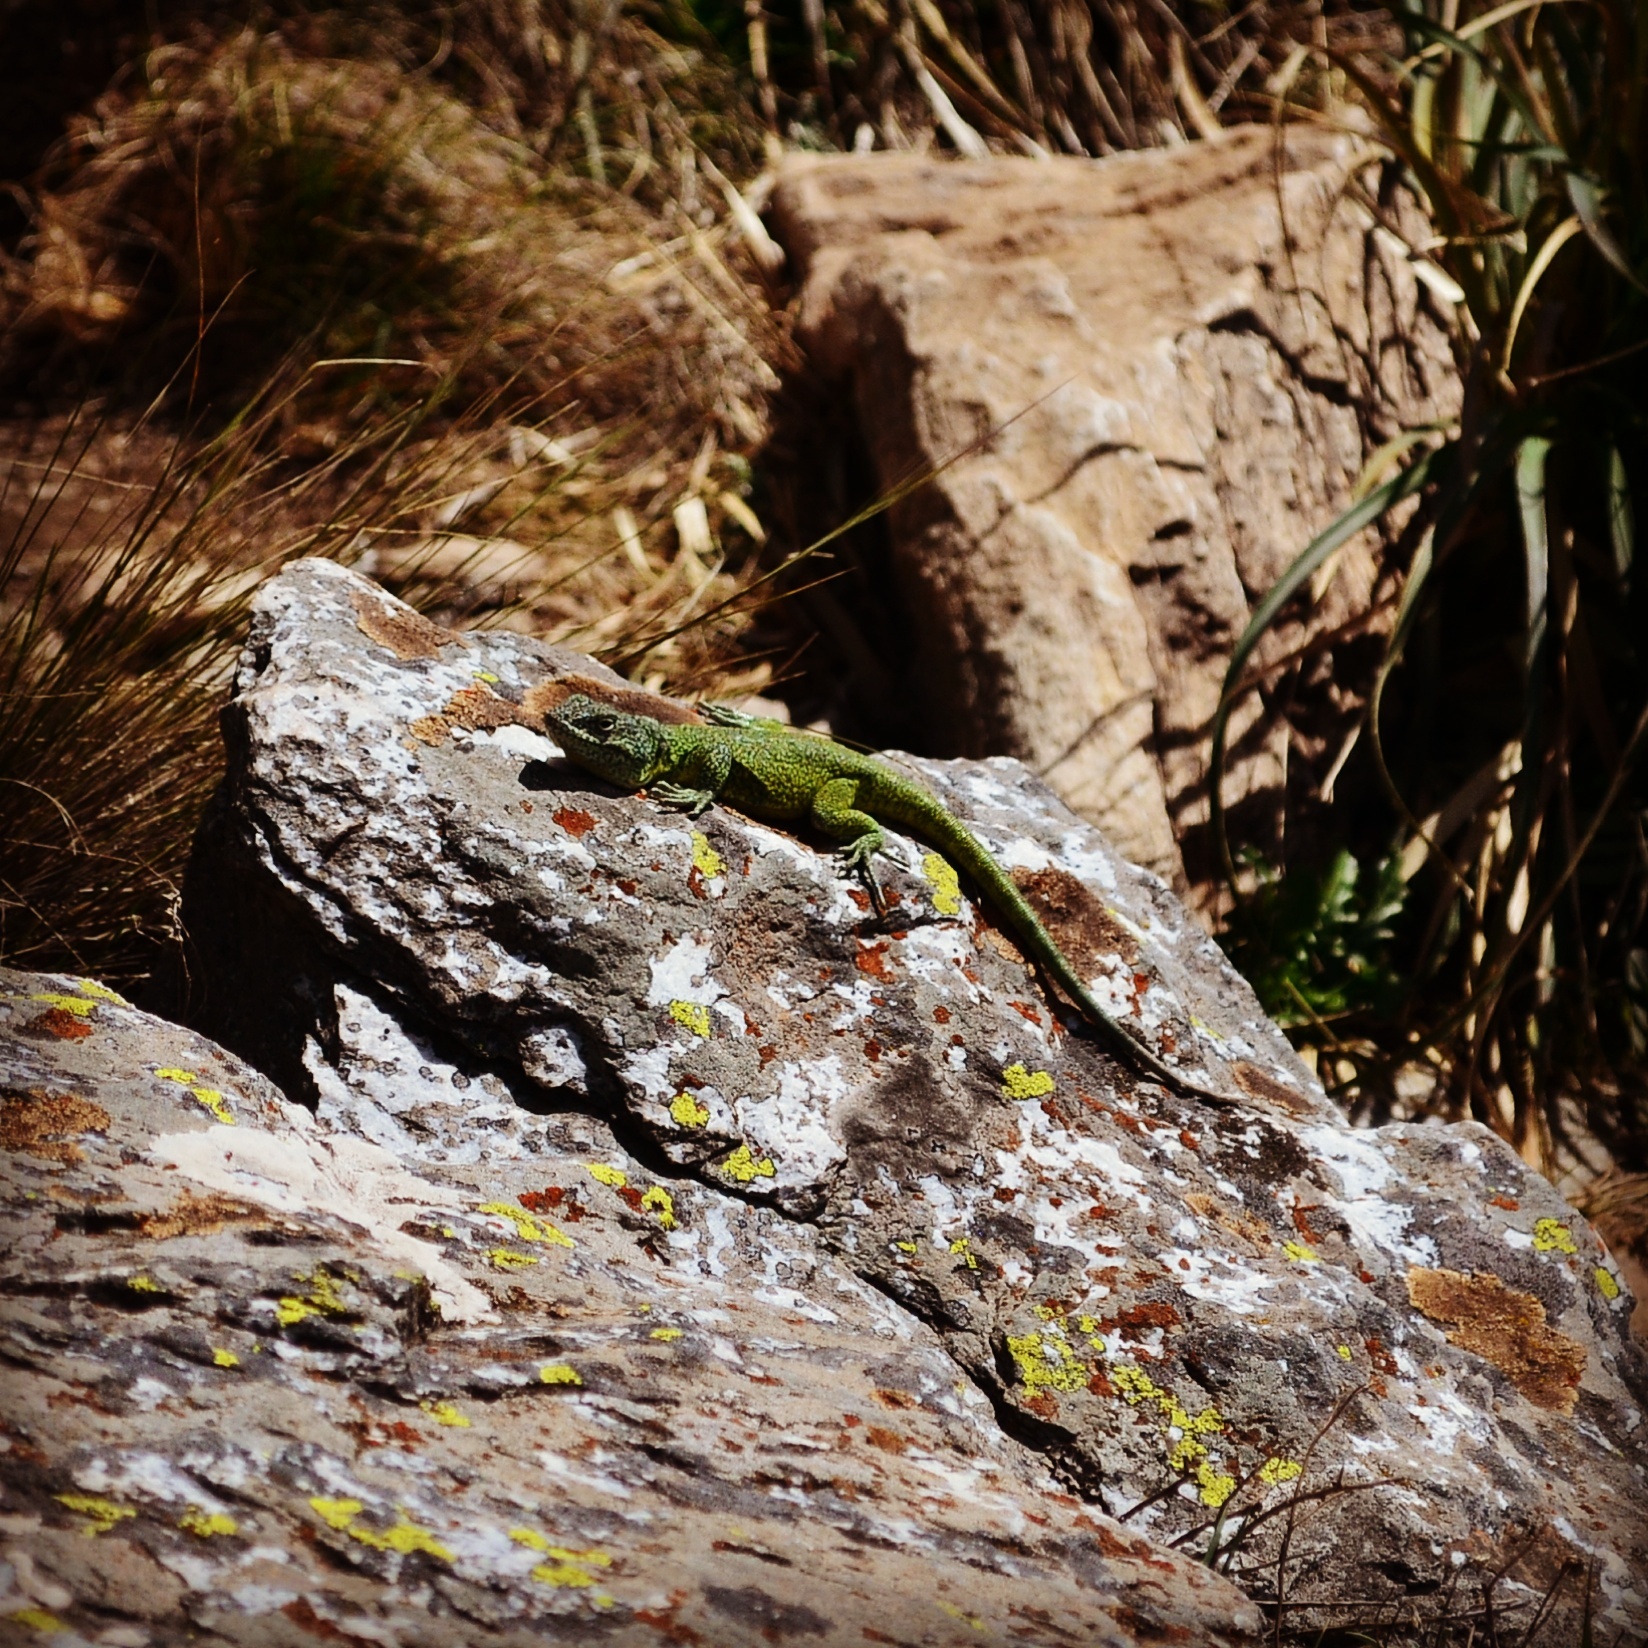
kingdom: Animalia
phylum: Chordata
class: Squamata
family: Leiosauridae
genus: Pristidactylus
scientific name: Pristidactylus casuhatiensis
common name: Casuhatien anole
